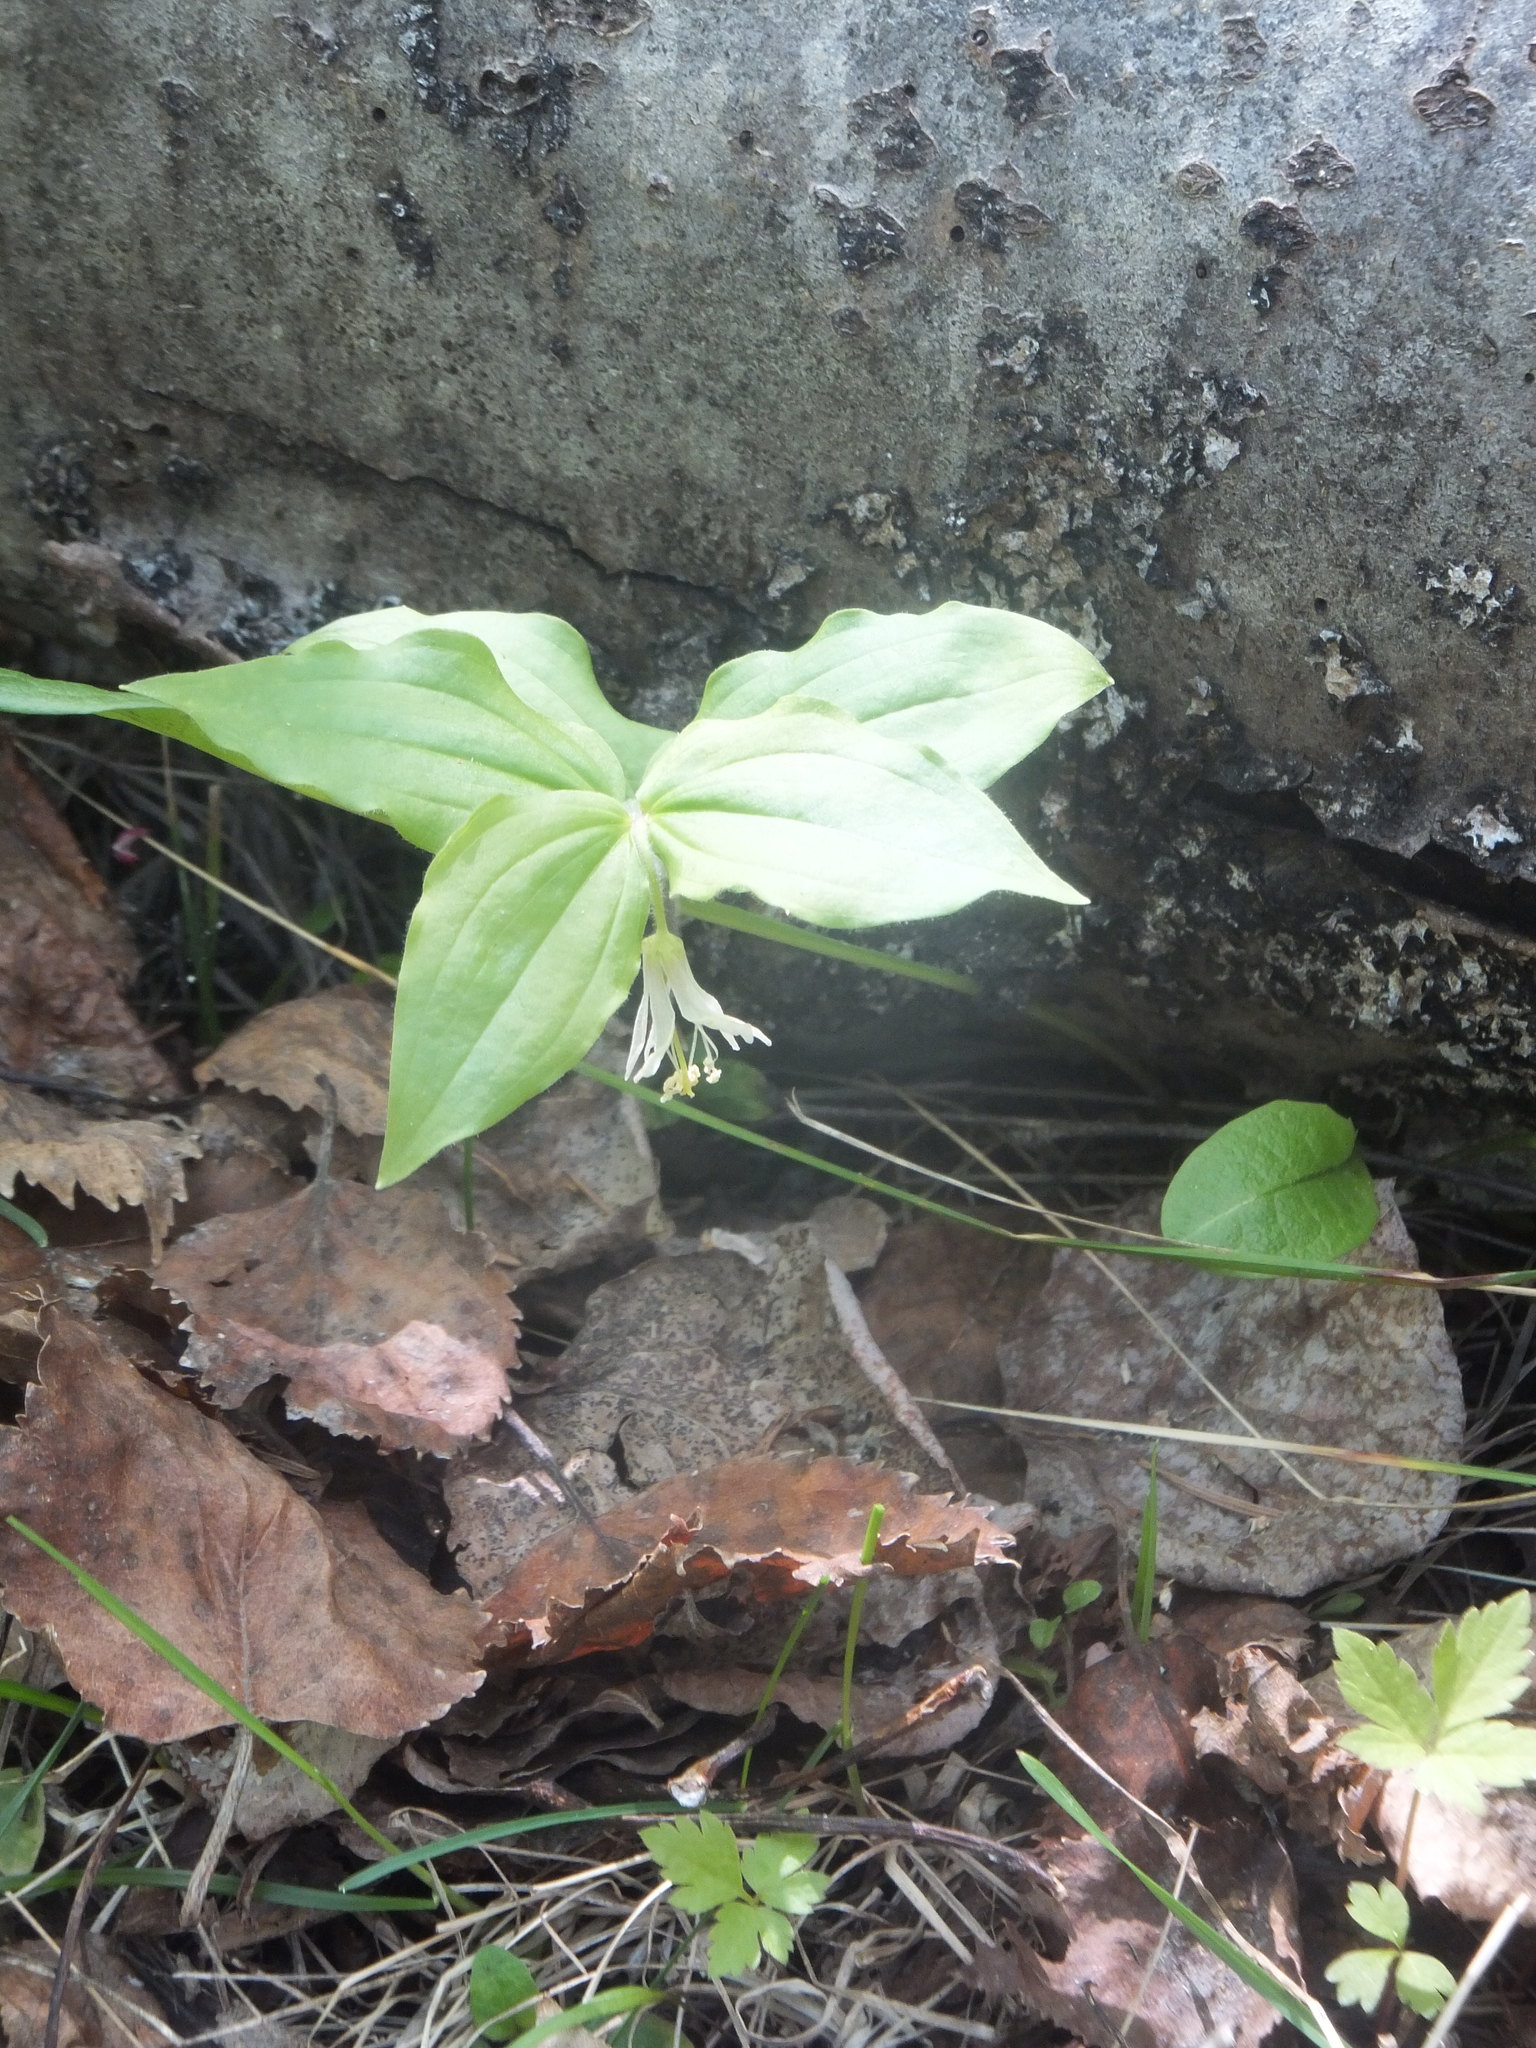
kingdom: Plantae
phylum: Tracheophyta
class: Liliopsida
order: Liliales
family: Liliaceae
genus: Prosartes
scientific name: Prosartes trachycarpa
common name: Rough-fruit fairy-bells
